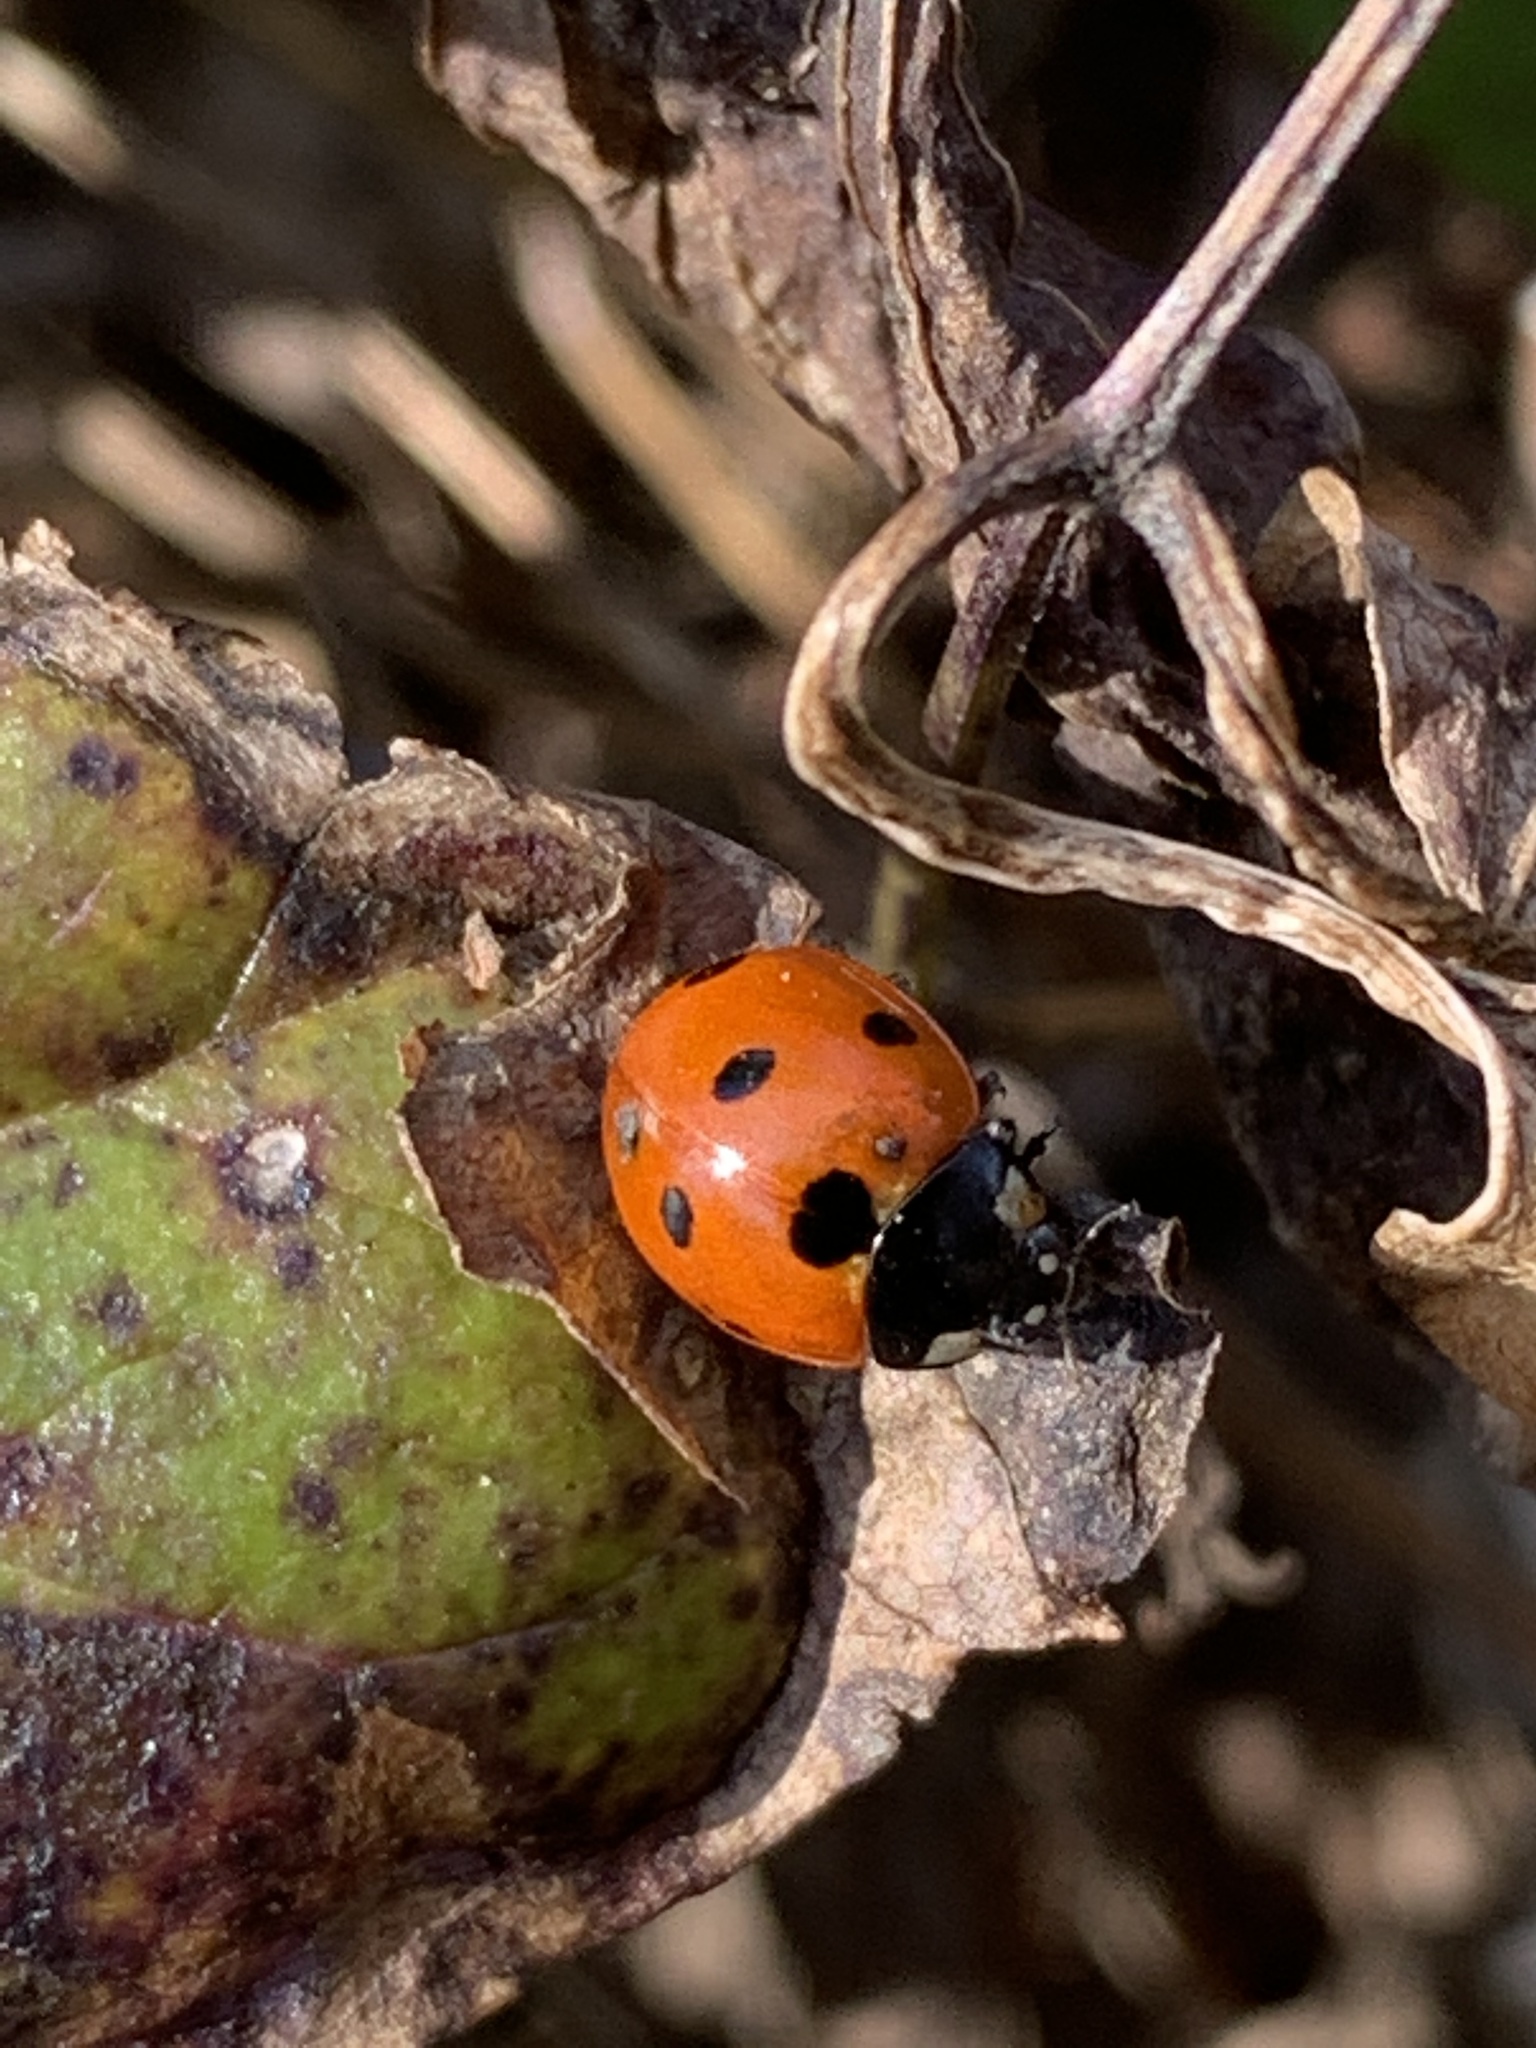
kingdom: Animalia
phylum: Arthropoda
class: Insecta
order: Coleoptera
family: Coccinellidae
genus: Coccinella
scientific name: Coccinella septempunctata
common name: Sevenspotted lady beetle
